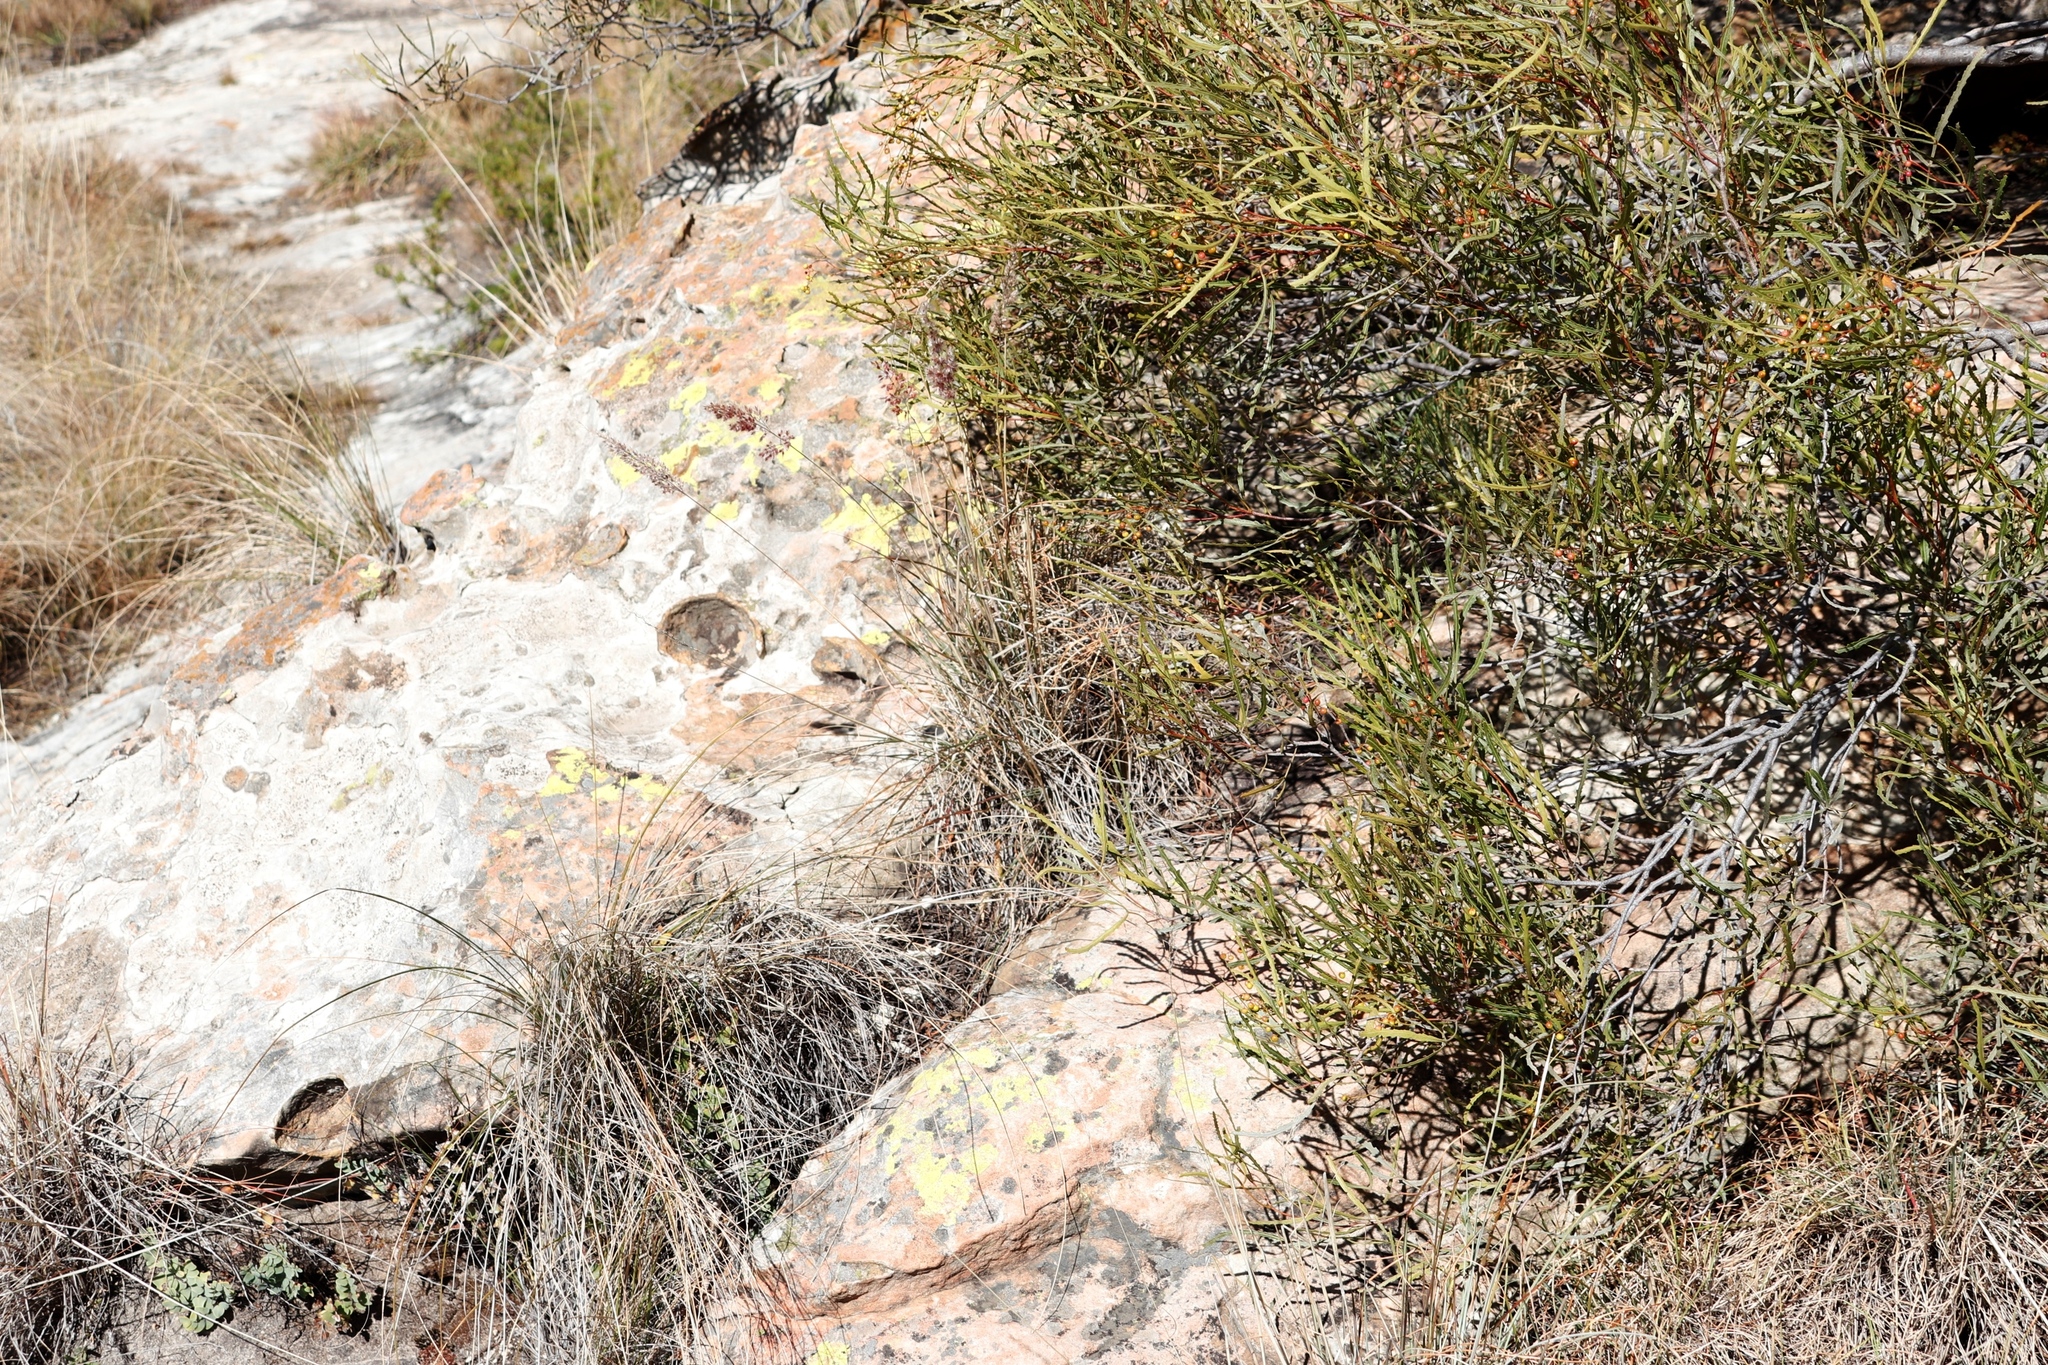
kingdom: Plantae
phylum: Tracheophyta
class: Magnoliopsida
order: Sapindales
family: Anacardiaceae
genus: Searsia
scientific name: Searsia erosa
